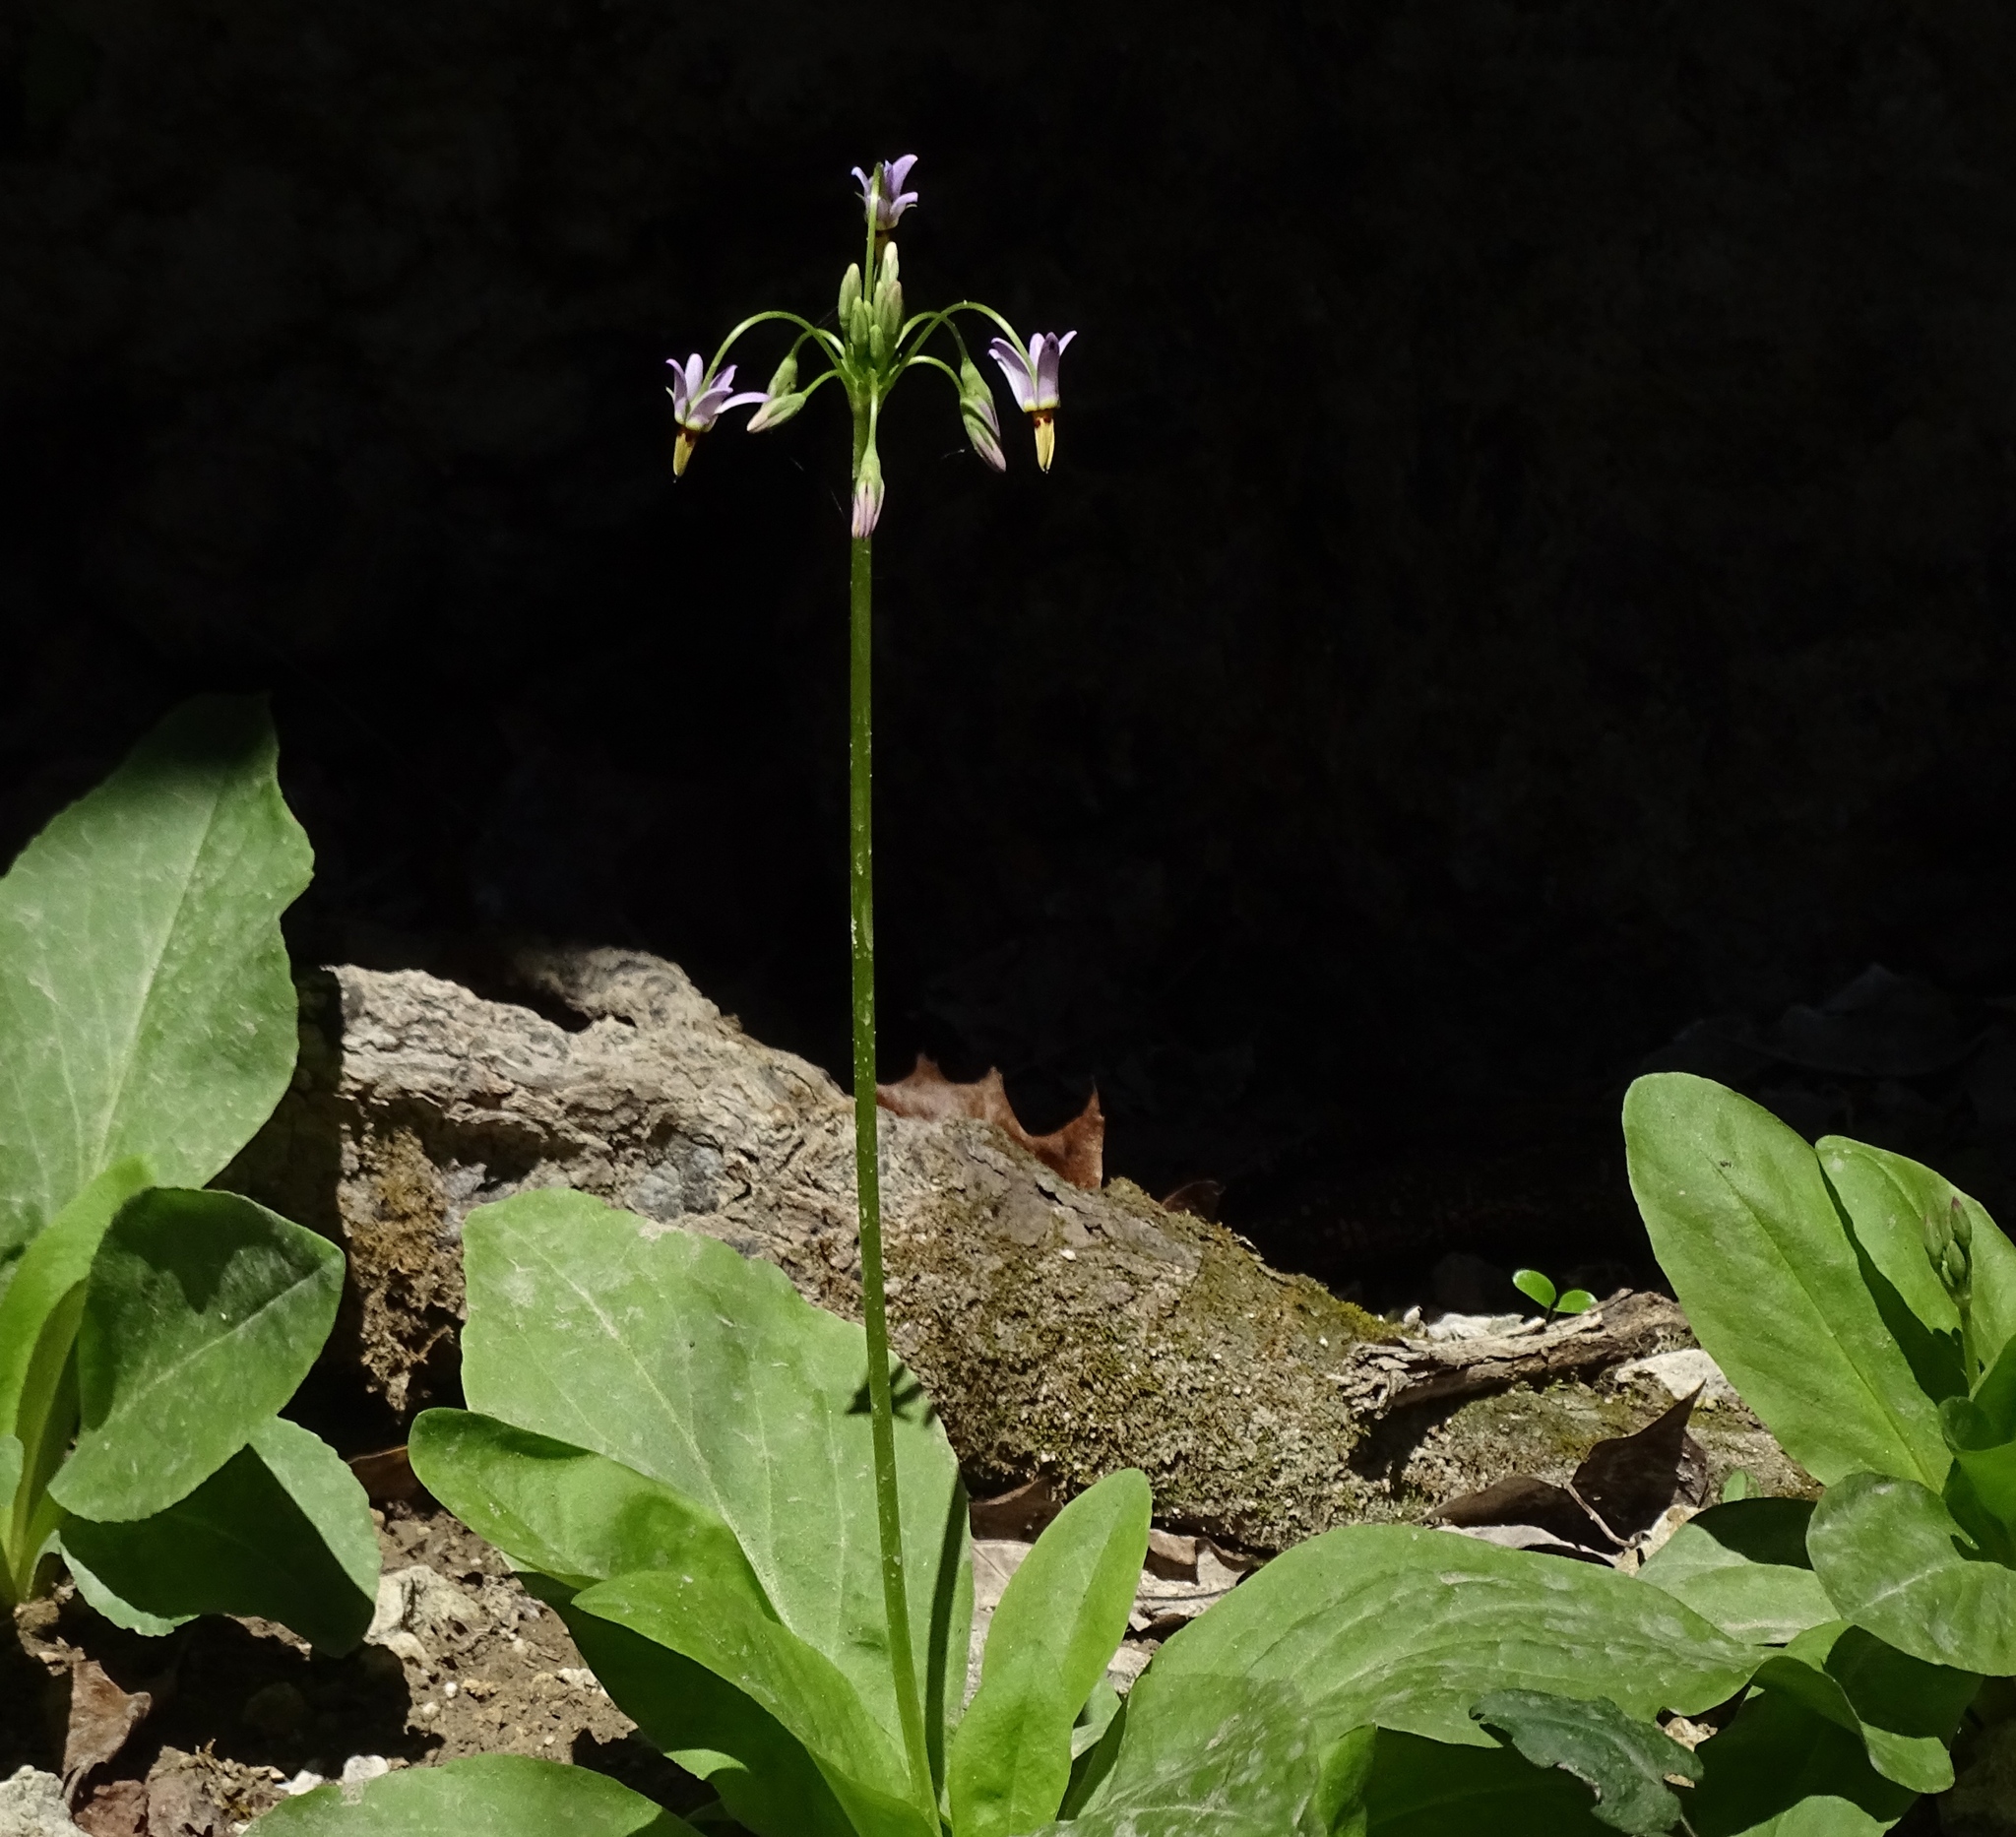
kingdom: Plantae
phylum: Tracheophyta
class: Magnoliopsida
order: Ericales
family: Primulaceae
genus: Dodecatheon
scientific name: Dodecatheon meadia
